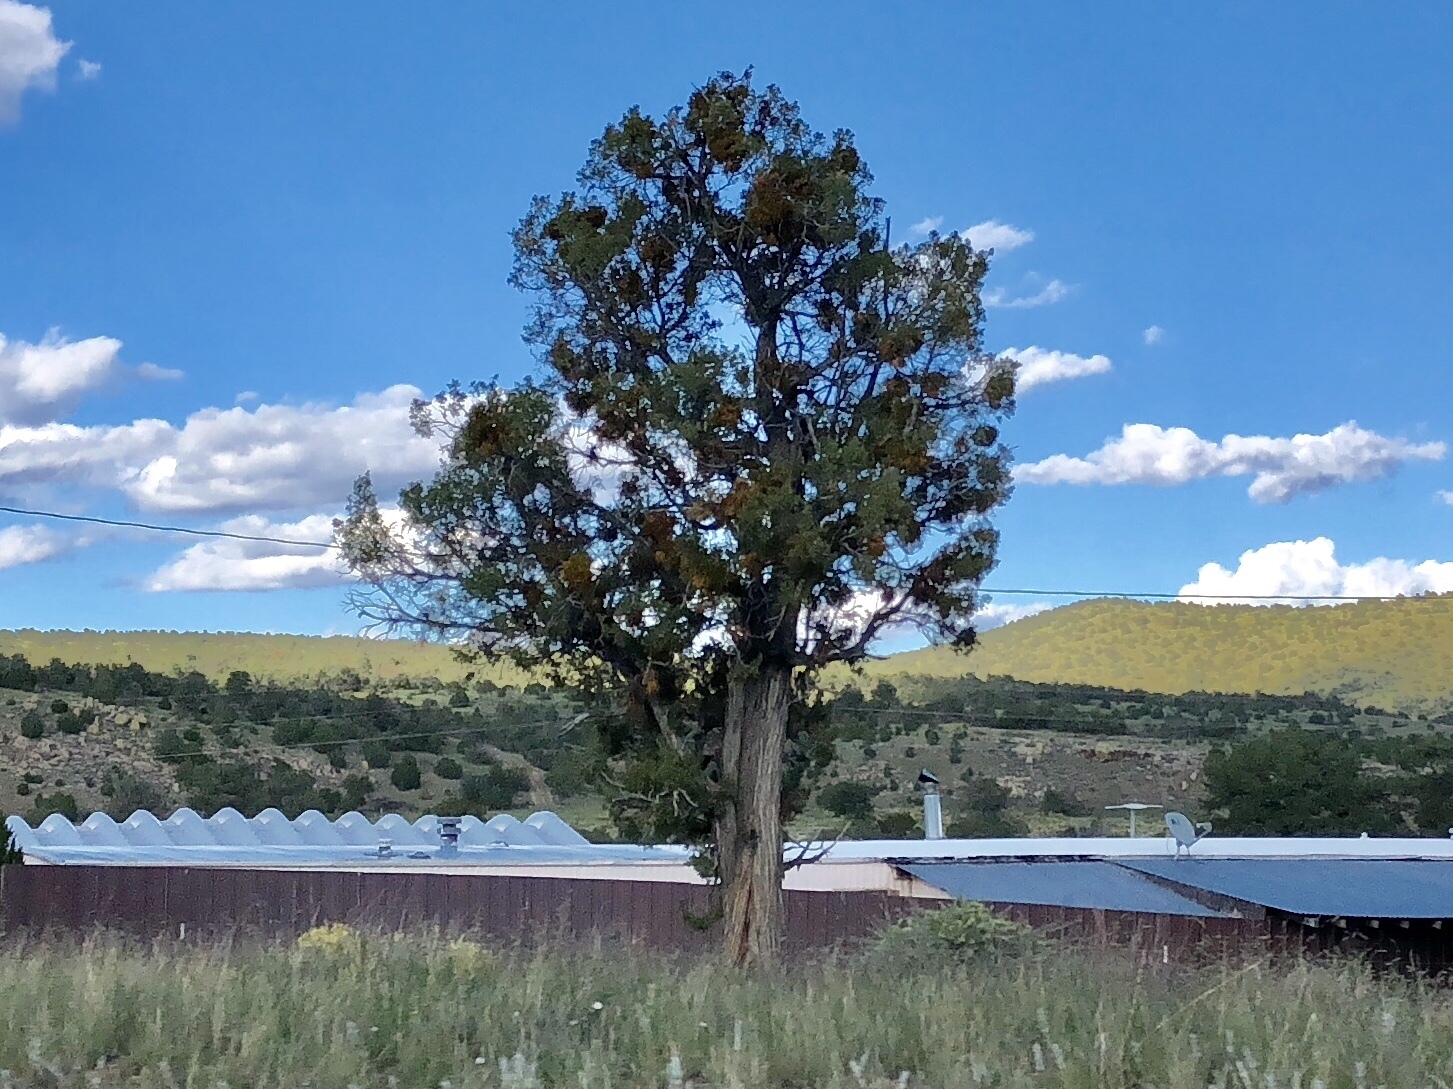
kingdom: Plantae
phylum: Tracheophyta
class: Pinopsida
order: Pinales
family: Cupressaceae
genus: Juniperus
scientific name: Juniperus
